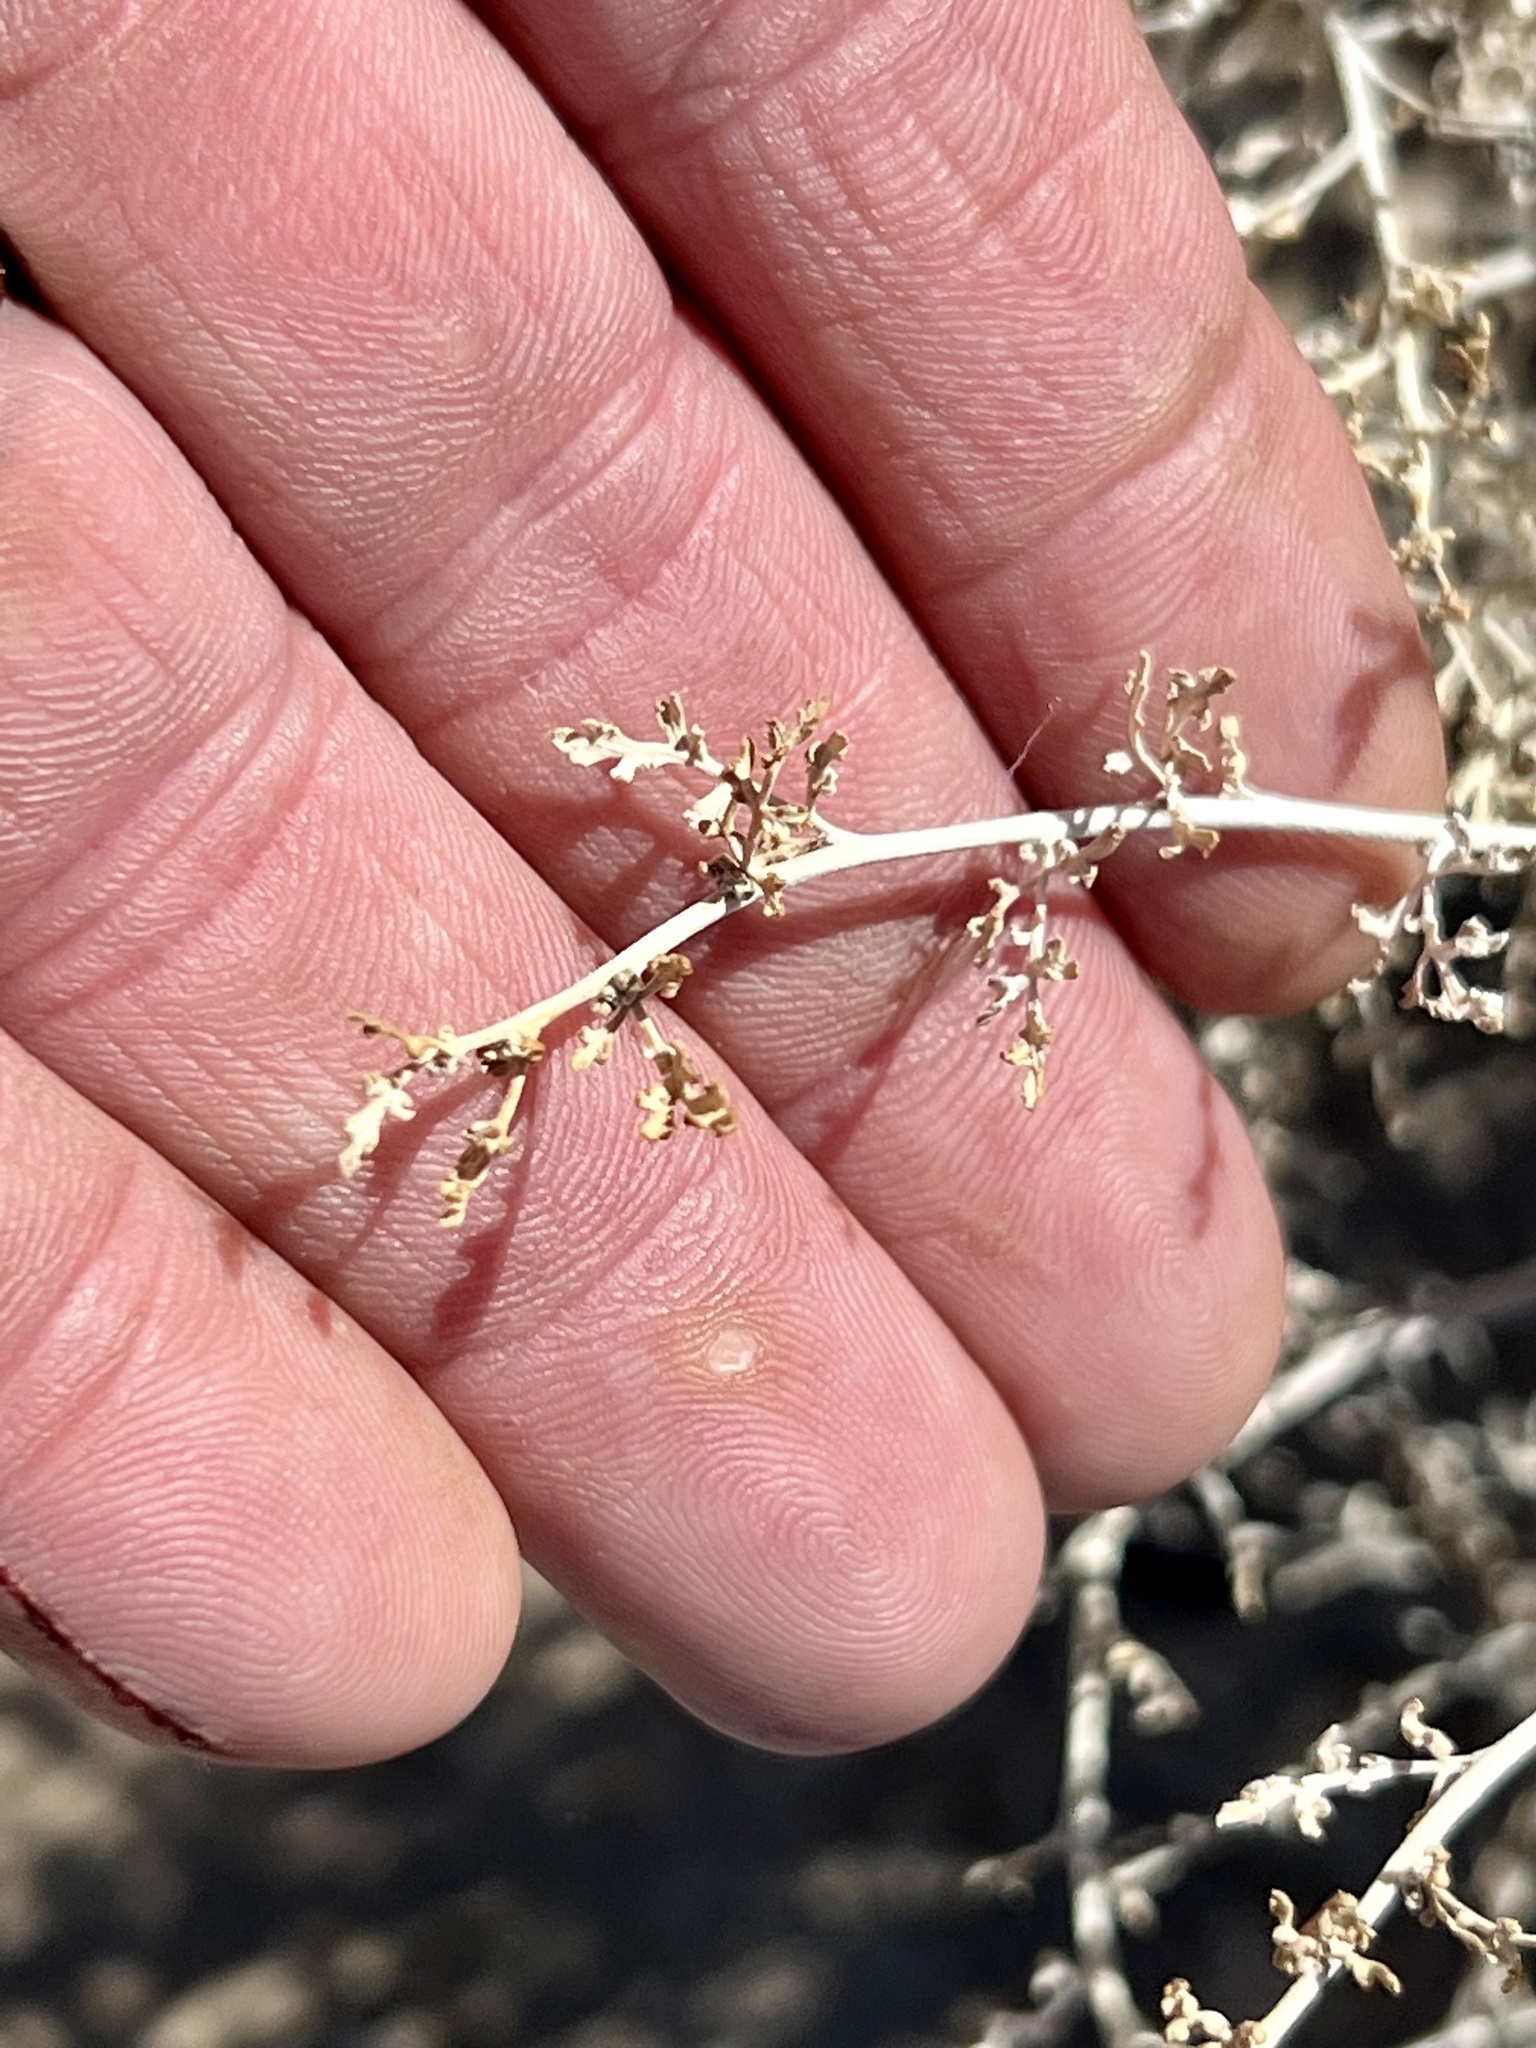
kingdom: Plantae
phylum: Tracheophyta
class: Magnoliopsida
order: Asterales
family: Asteraceae
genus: Ambrosia
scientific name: Ambrosia dumosa
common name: Bur-sage
